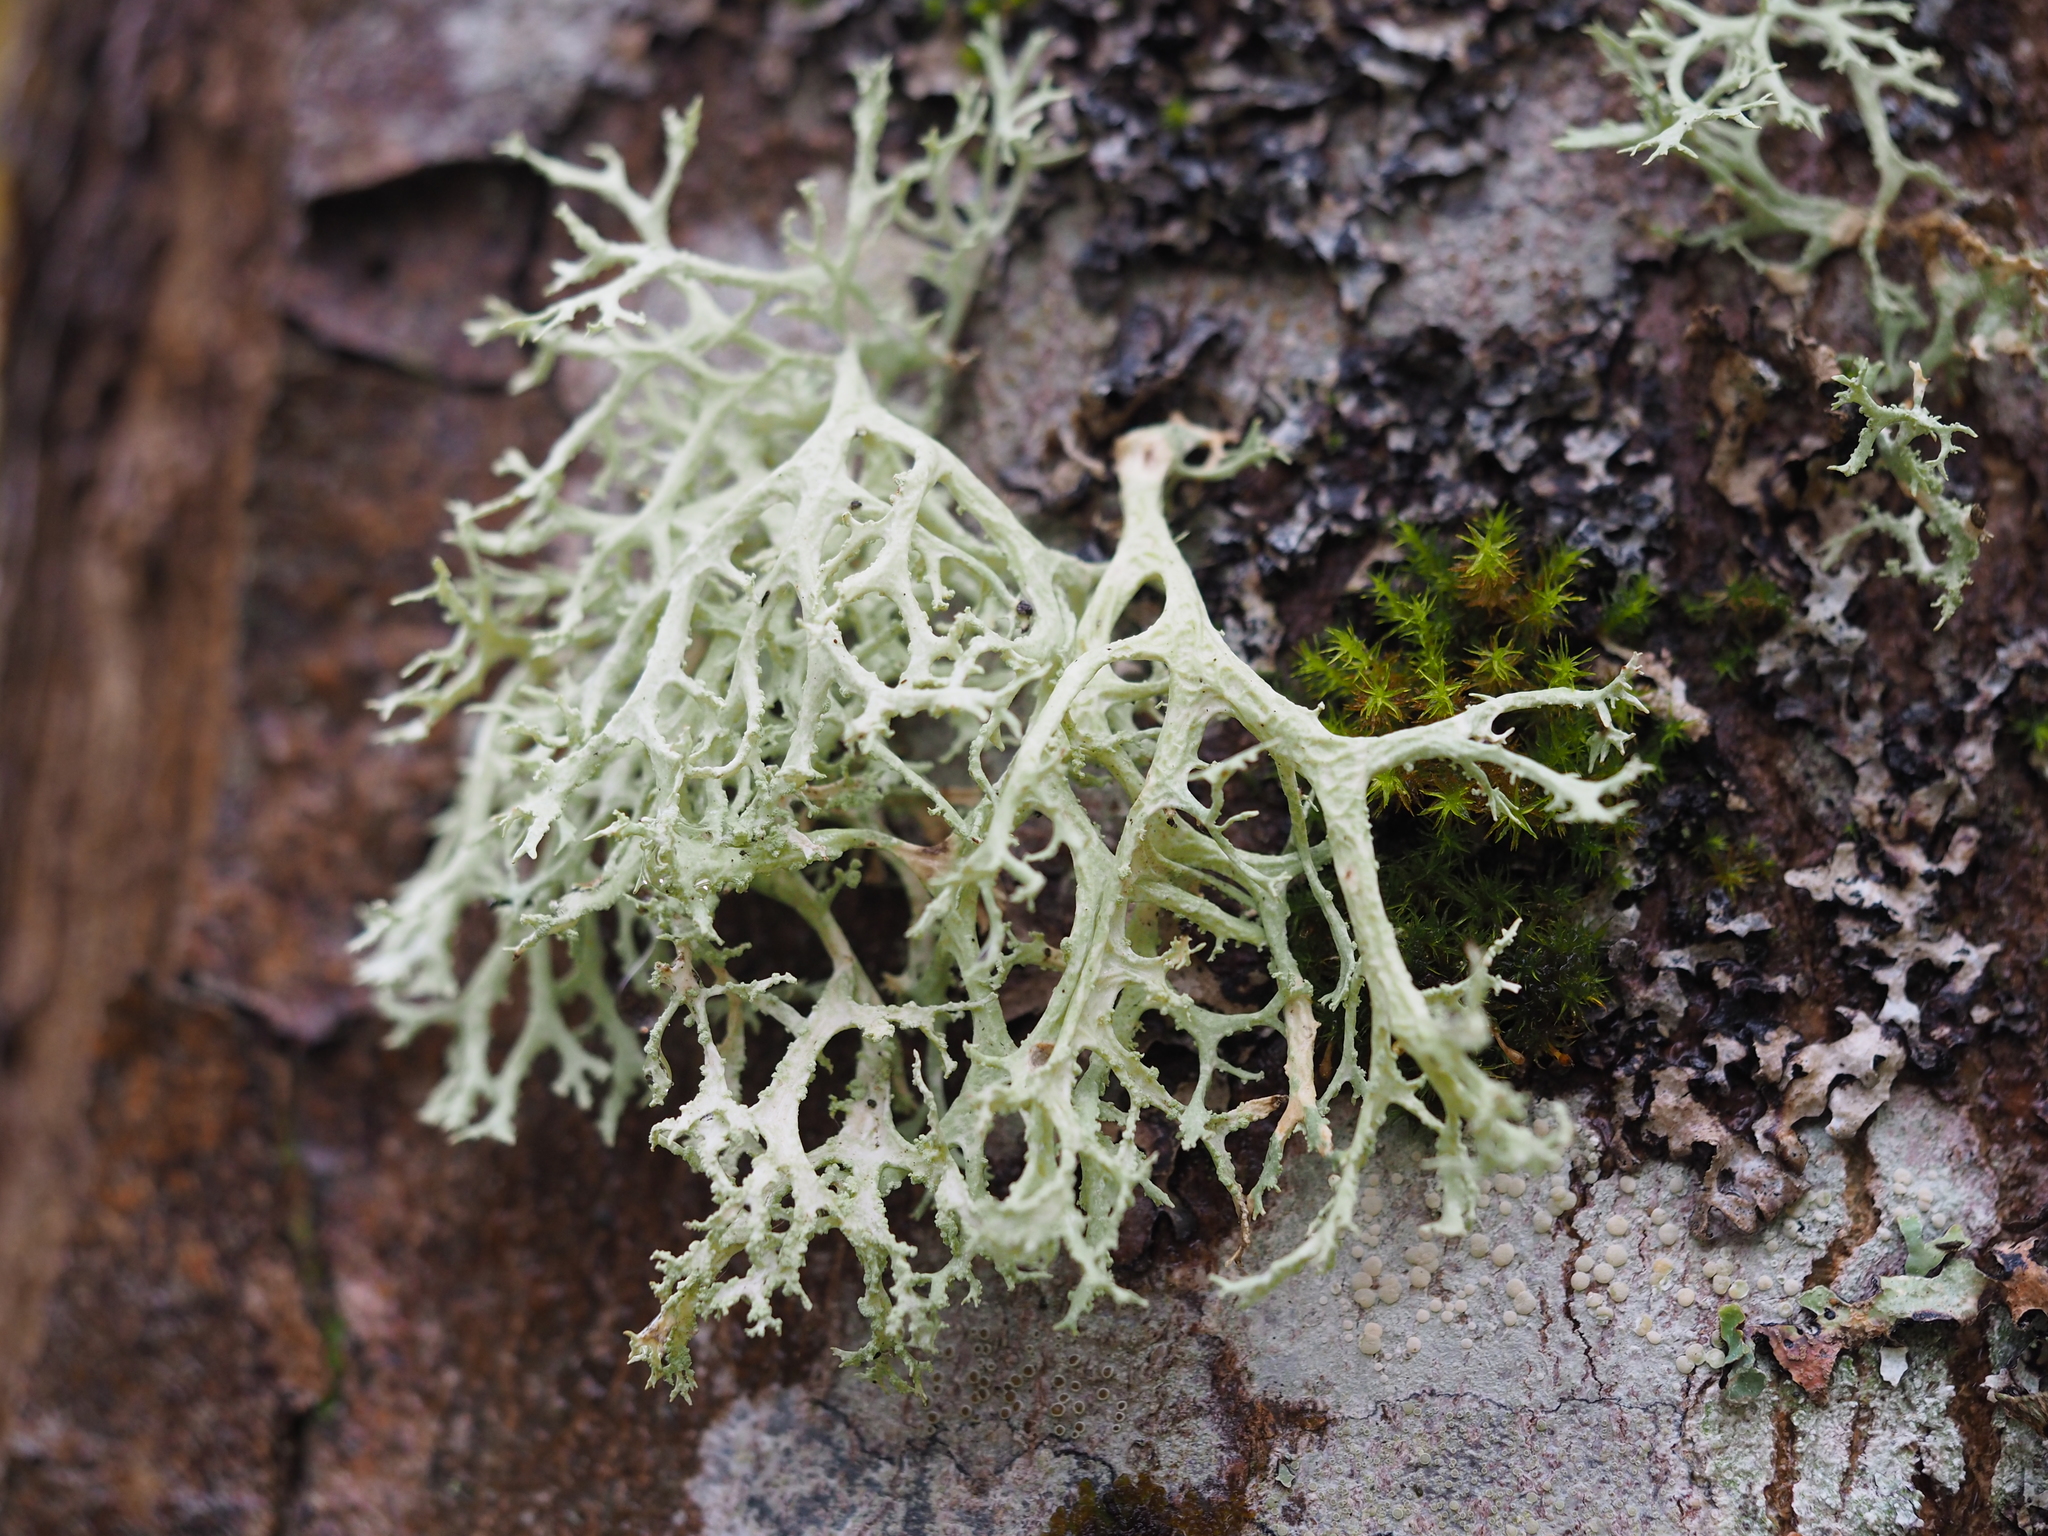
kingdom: Fungi
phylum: Ascomycota
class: Lecanoromycetes
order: Lecanorales
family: Parmeliaceae
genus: Evernia
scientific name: Evernia prunastri
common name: Oak moss
